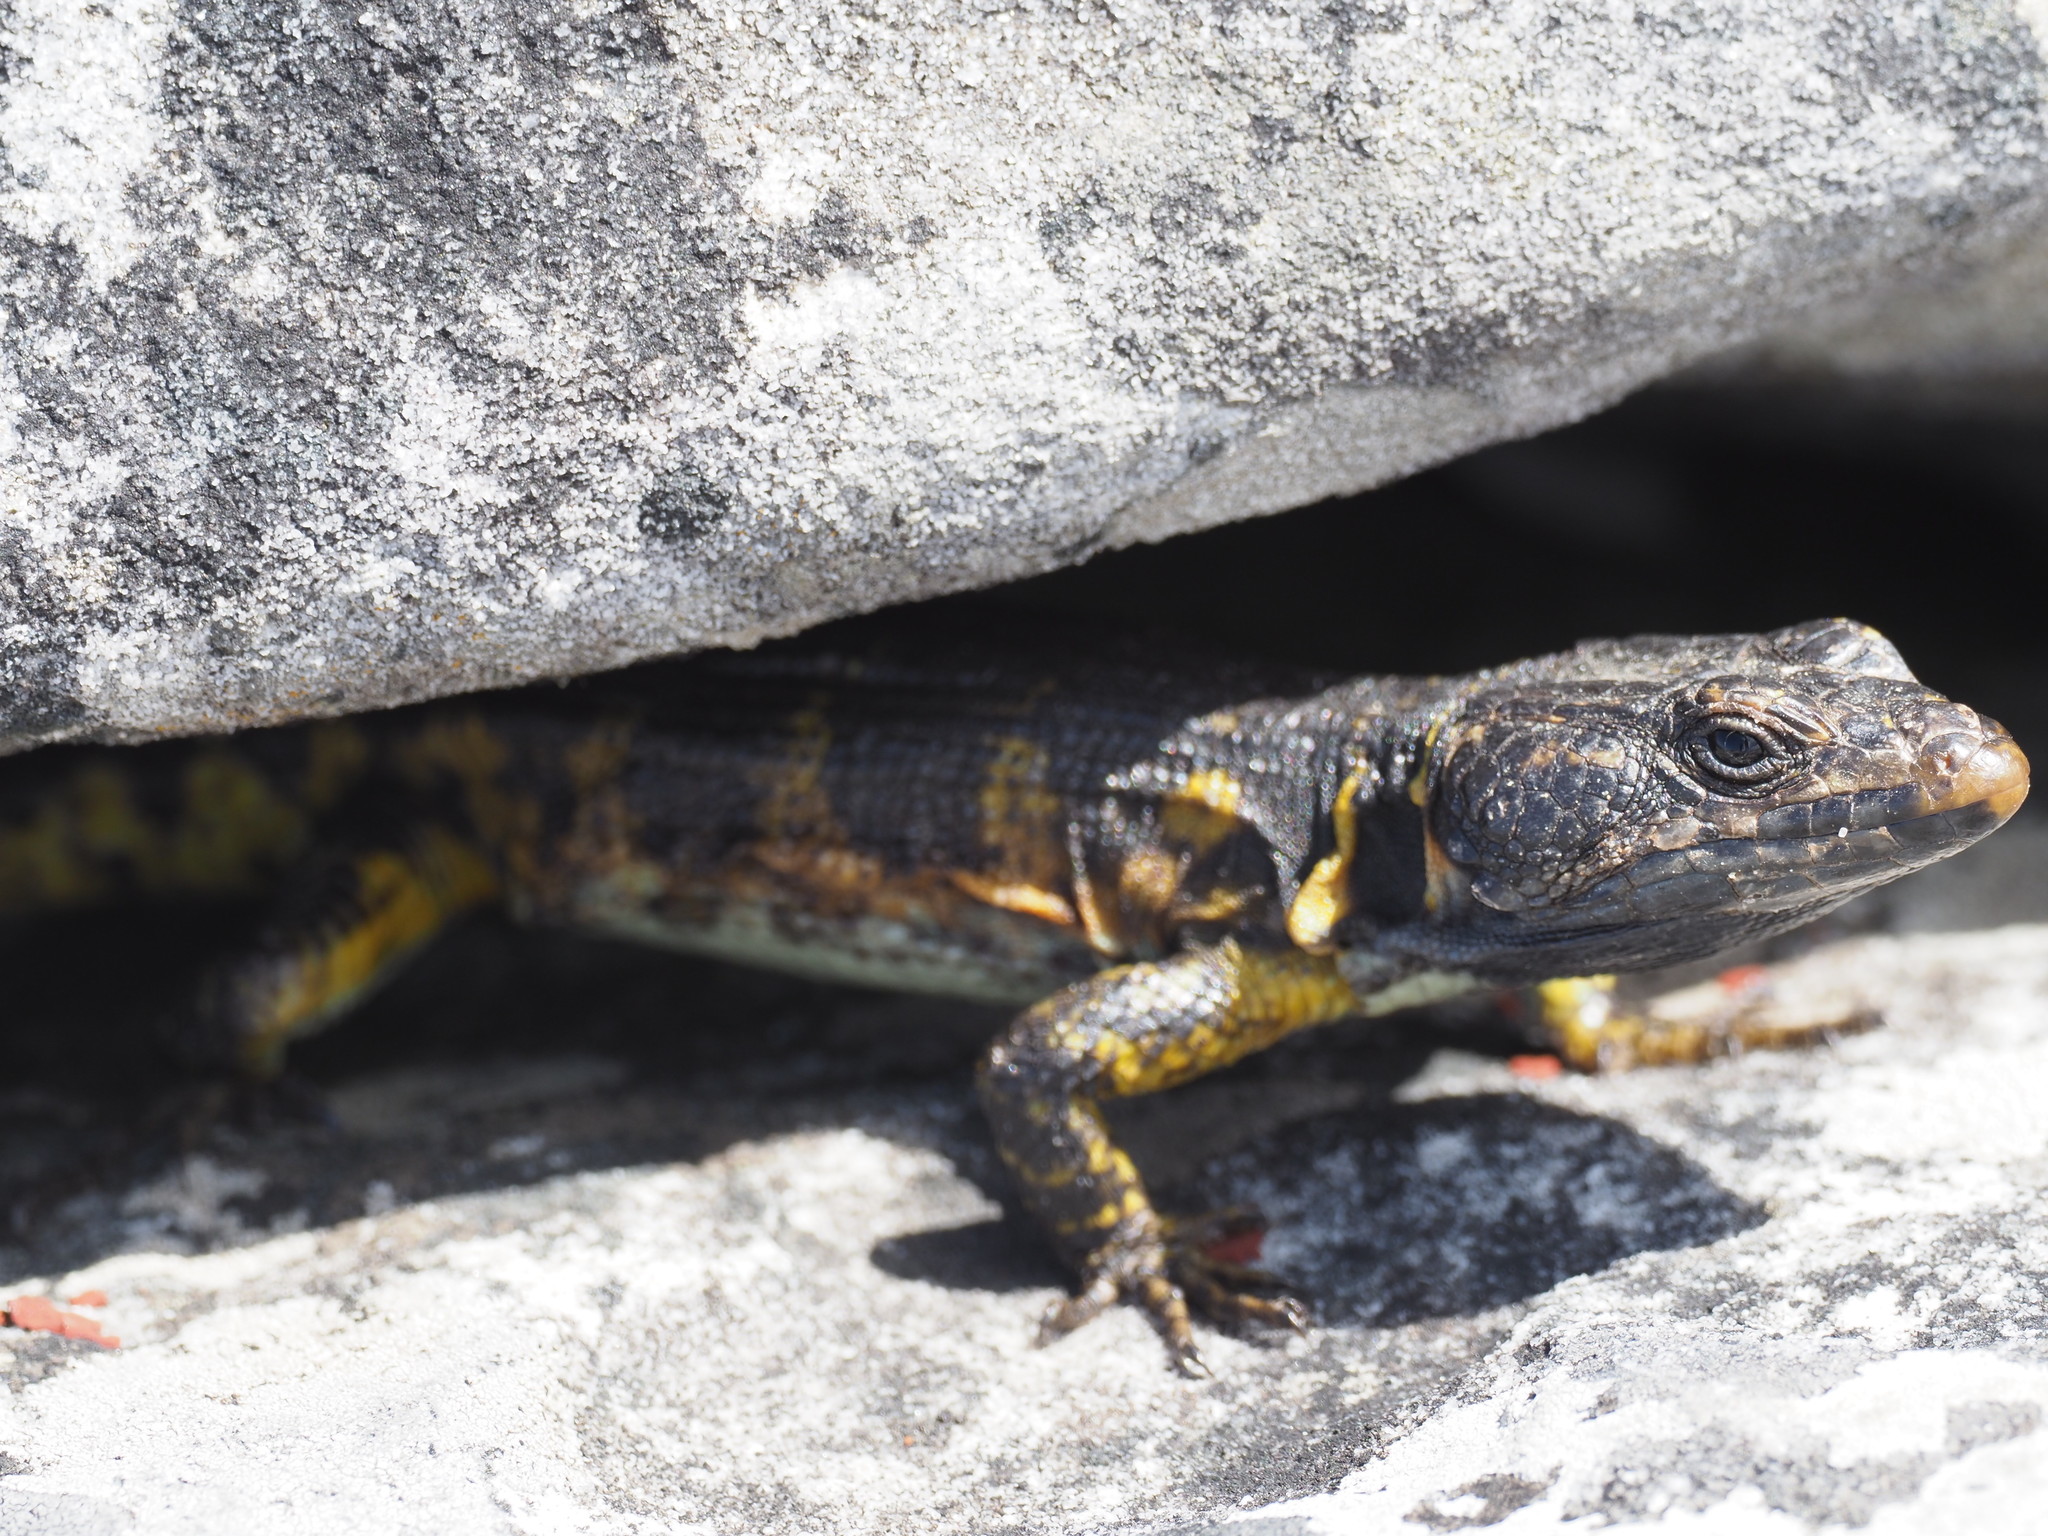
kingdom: Animalia
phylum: Chordata
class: Squamata
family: Cordylidae
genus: Pseudocordylus
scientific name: Pseudocordylus microlepidotus
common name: Cape crag lizard
